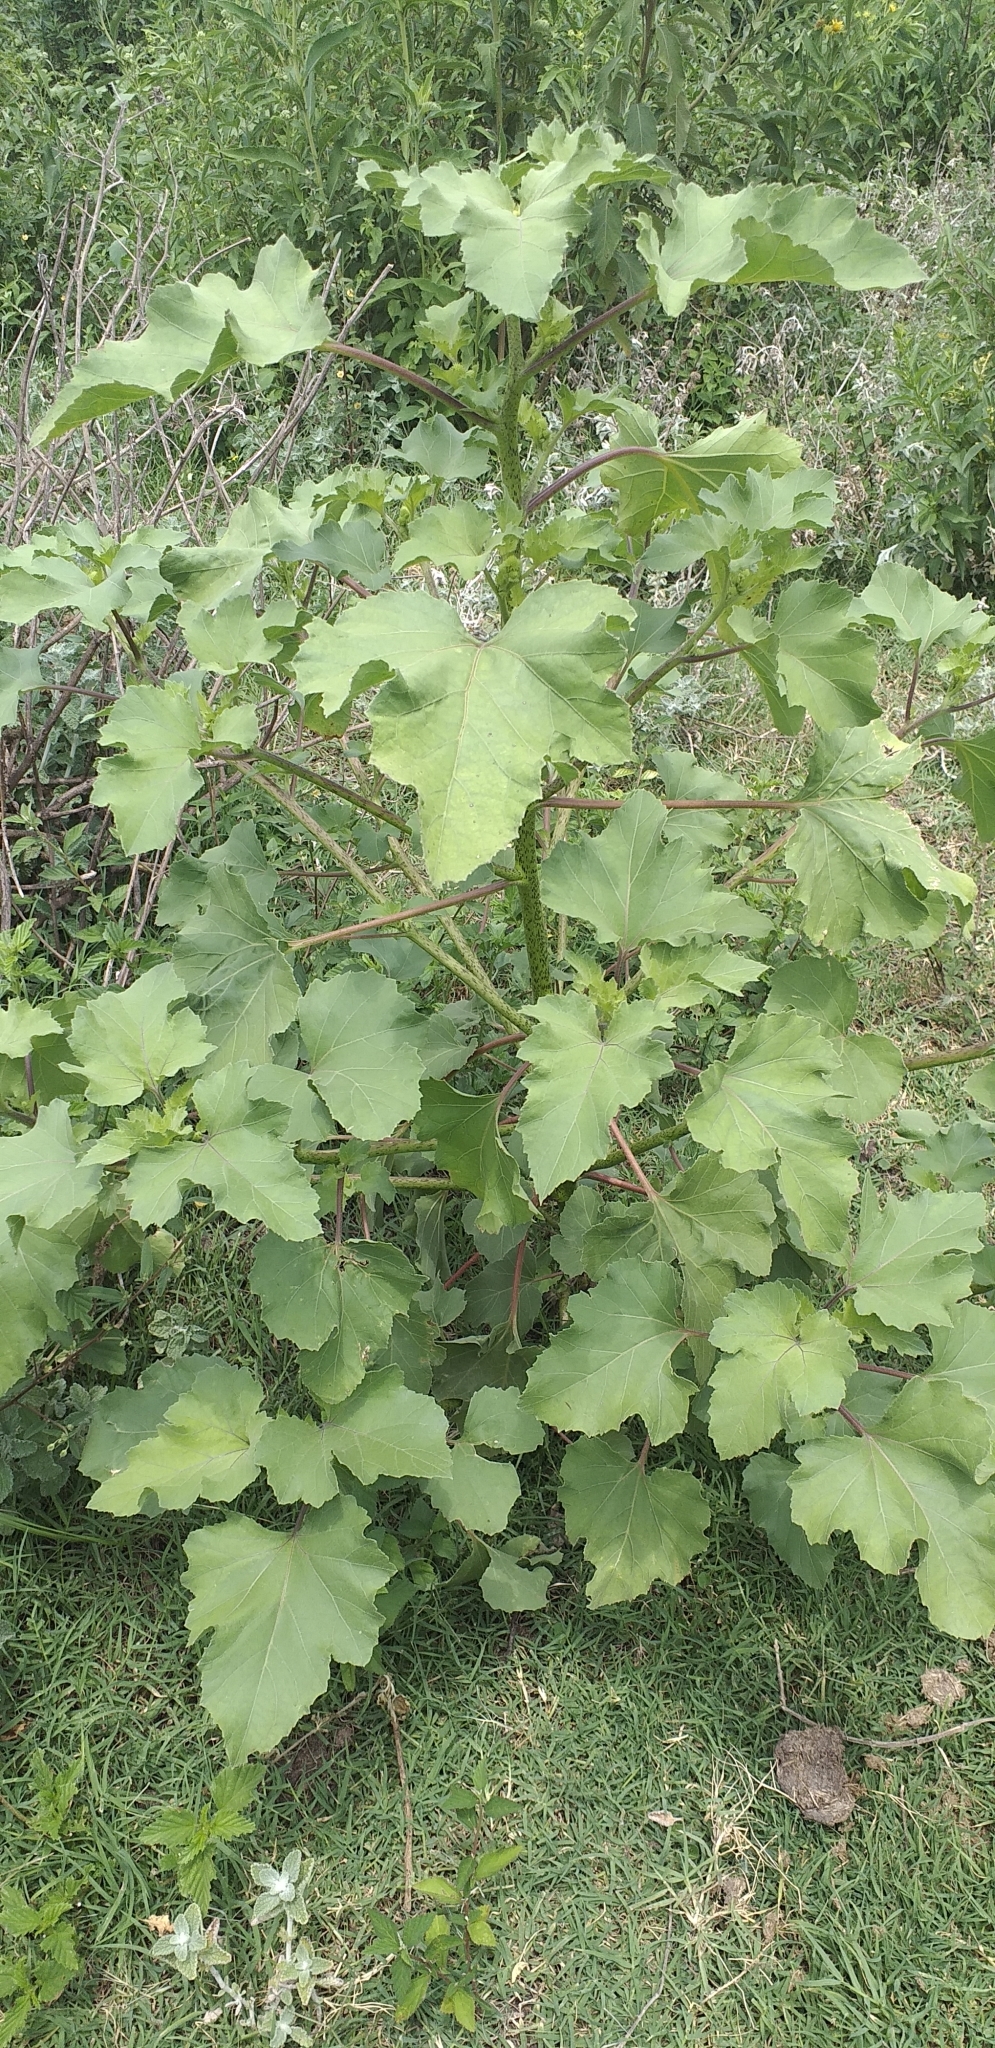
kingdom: Plantae
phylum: Tracheophyta
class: Magnoliopsida
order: Asterales
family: Asteraceae
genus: Xanthium
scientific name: Xanthium strumarium
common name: Rough cocklebur
